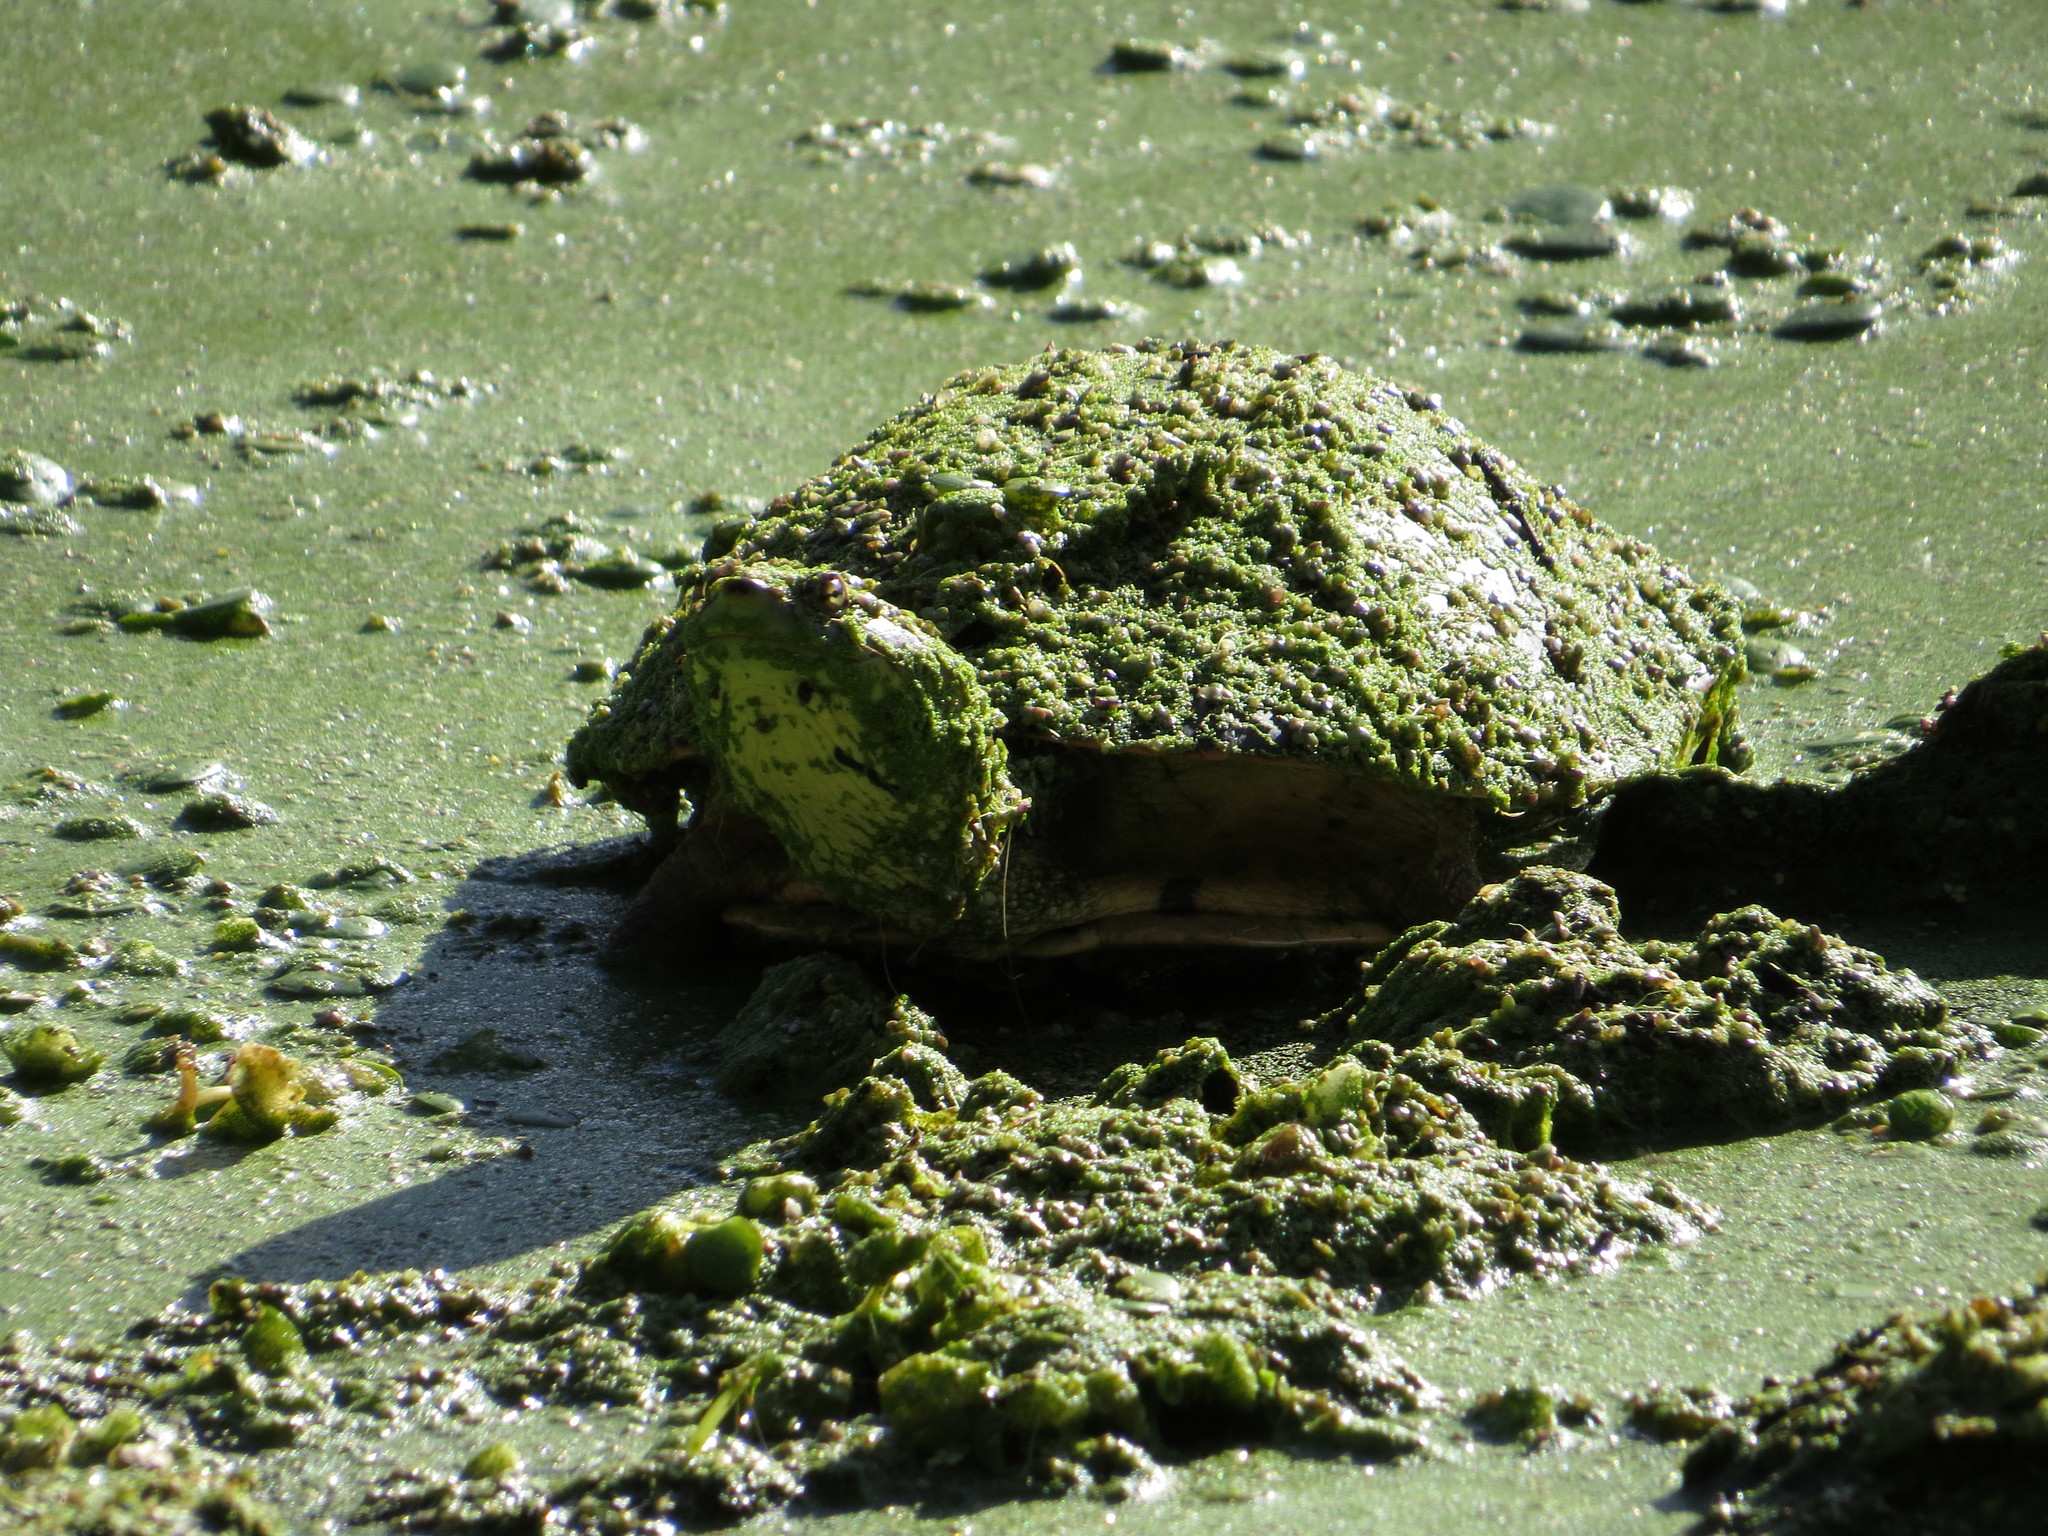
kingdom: Animalia
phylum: Chordata
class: Testudines
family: Chelidae
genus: Phrynops
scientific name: Phrynops hilarii
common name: Side-necked turtle of saint hillaire
